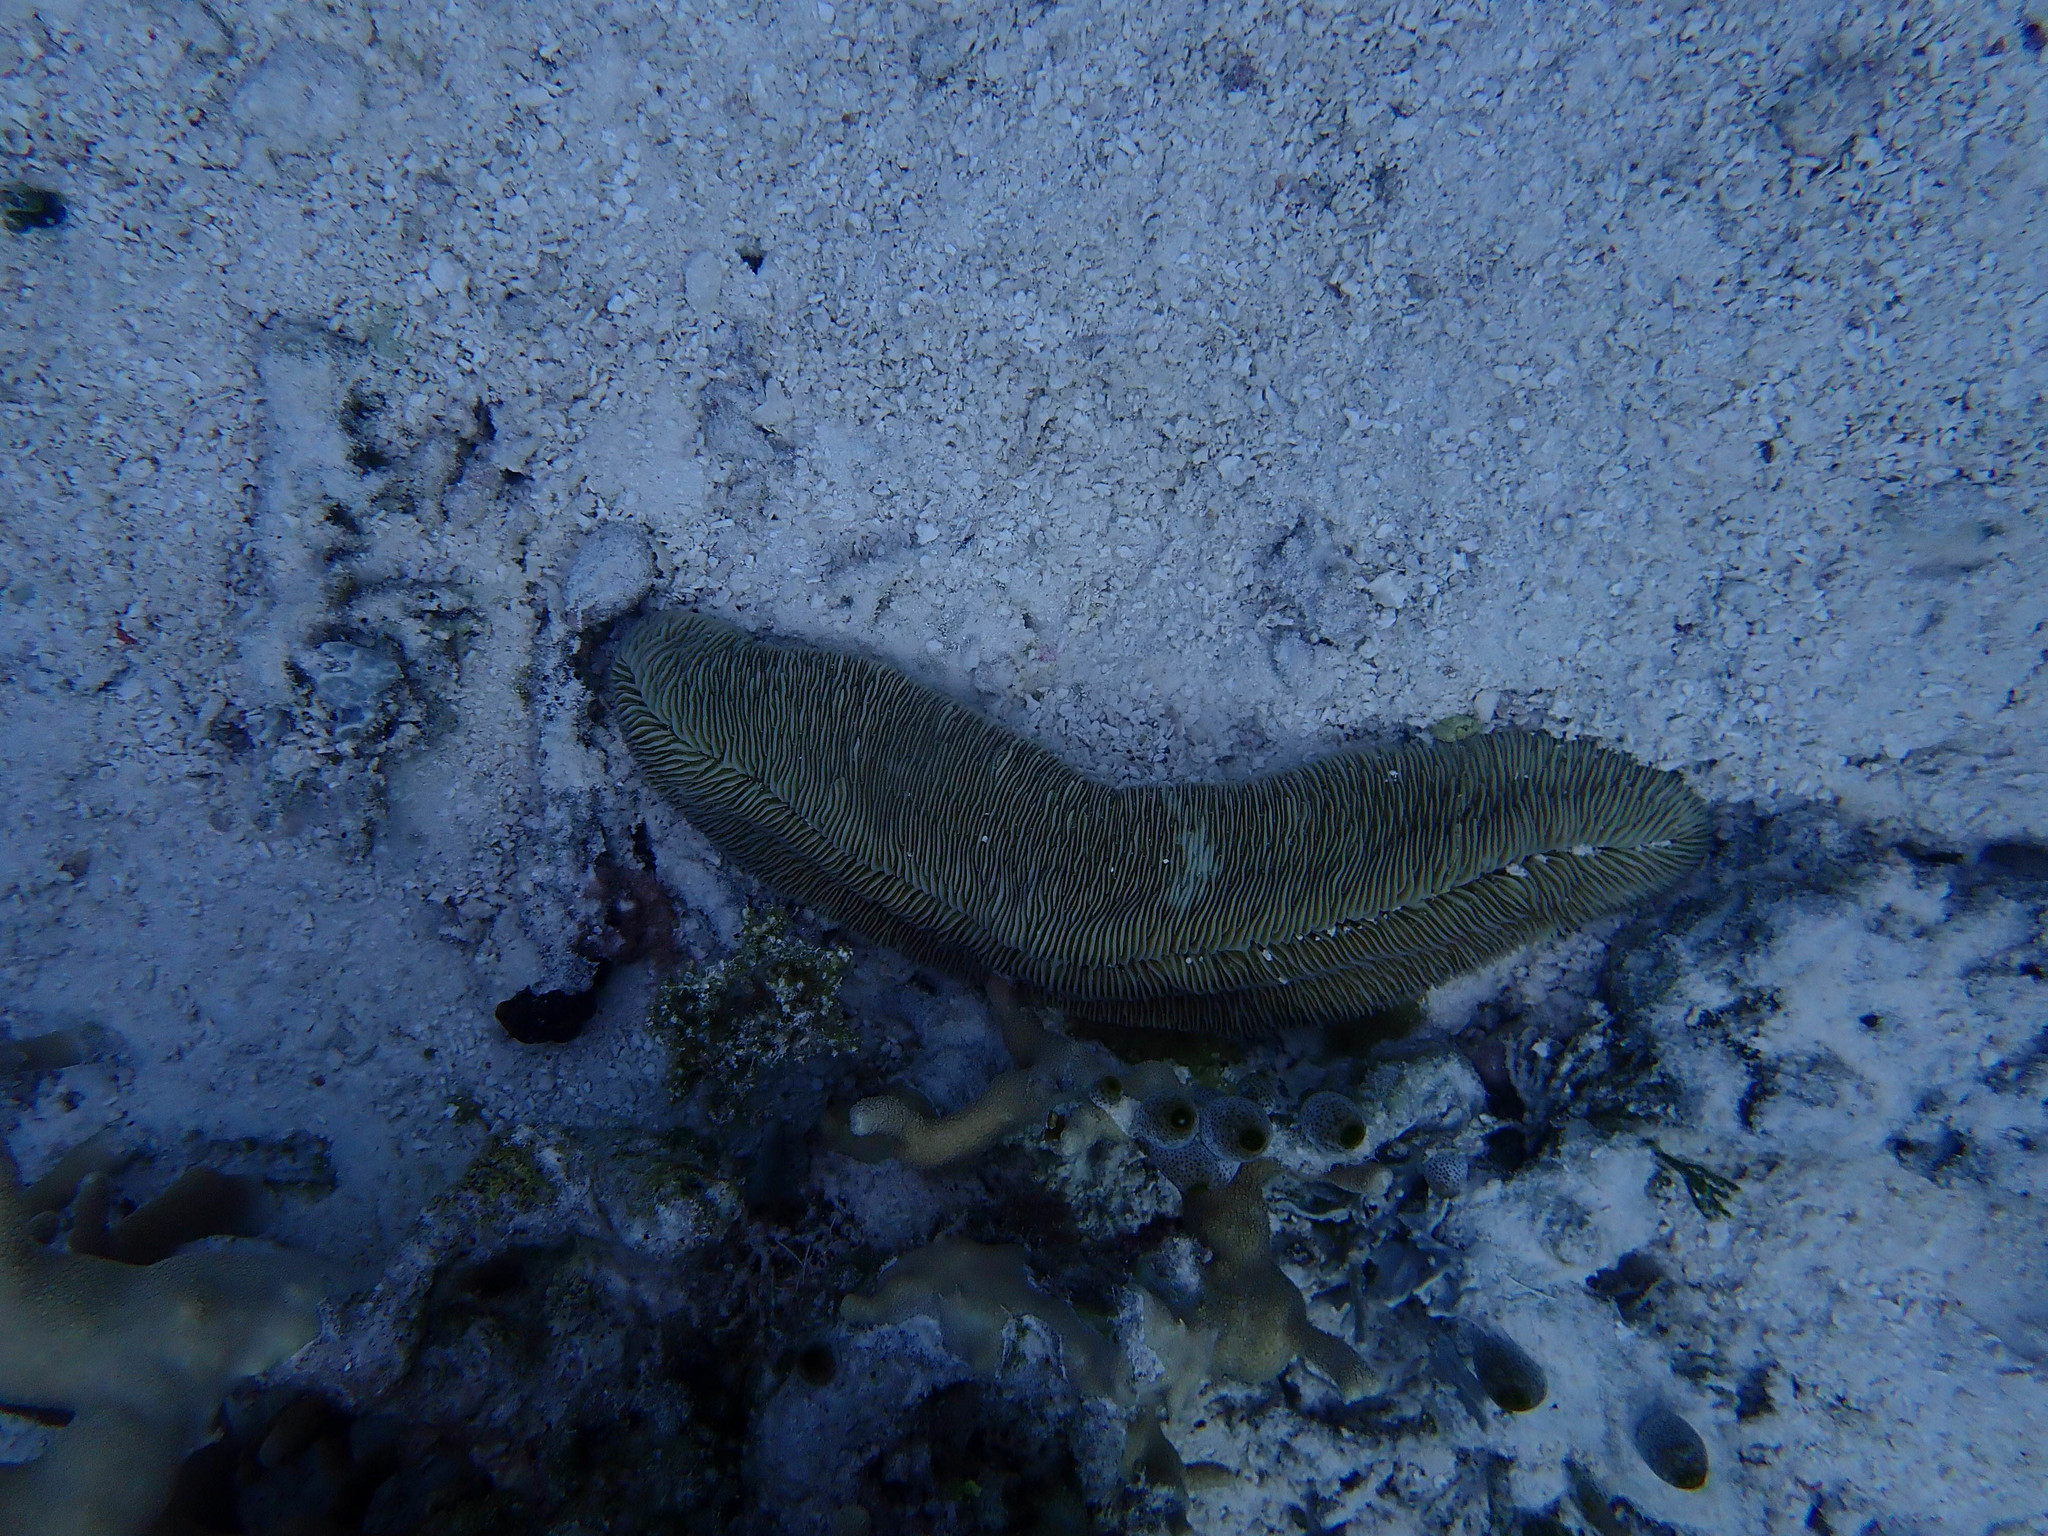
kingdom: Animalia
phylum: Cnidaria
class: Anthozoa
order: Scleractinia
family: Fungiidae
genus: Herpolitha
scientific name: Herpolitha limax
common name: Striate boomerang coral
